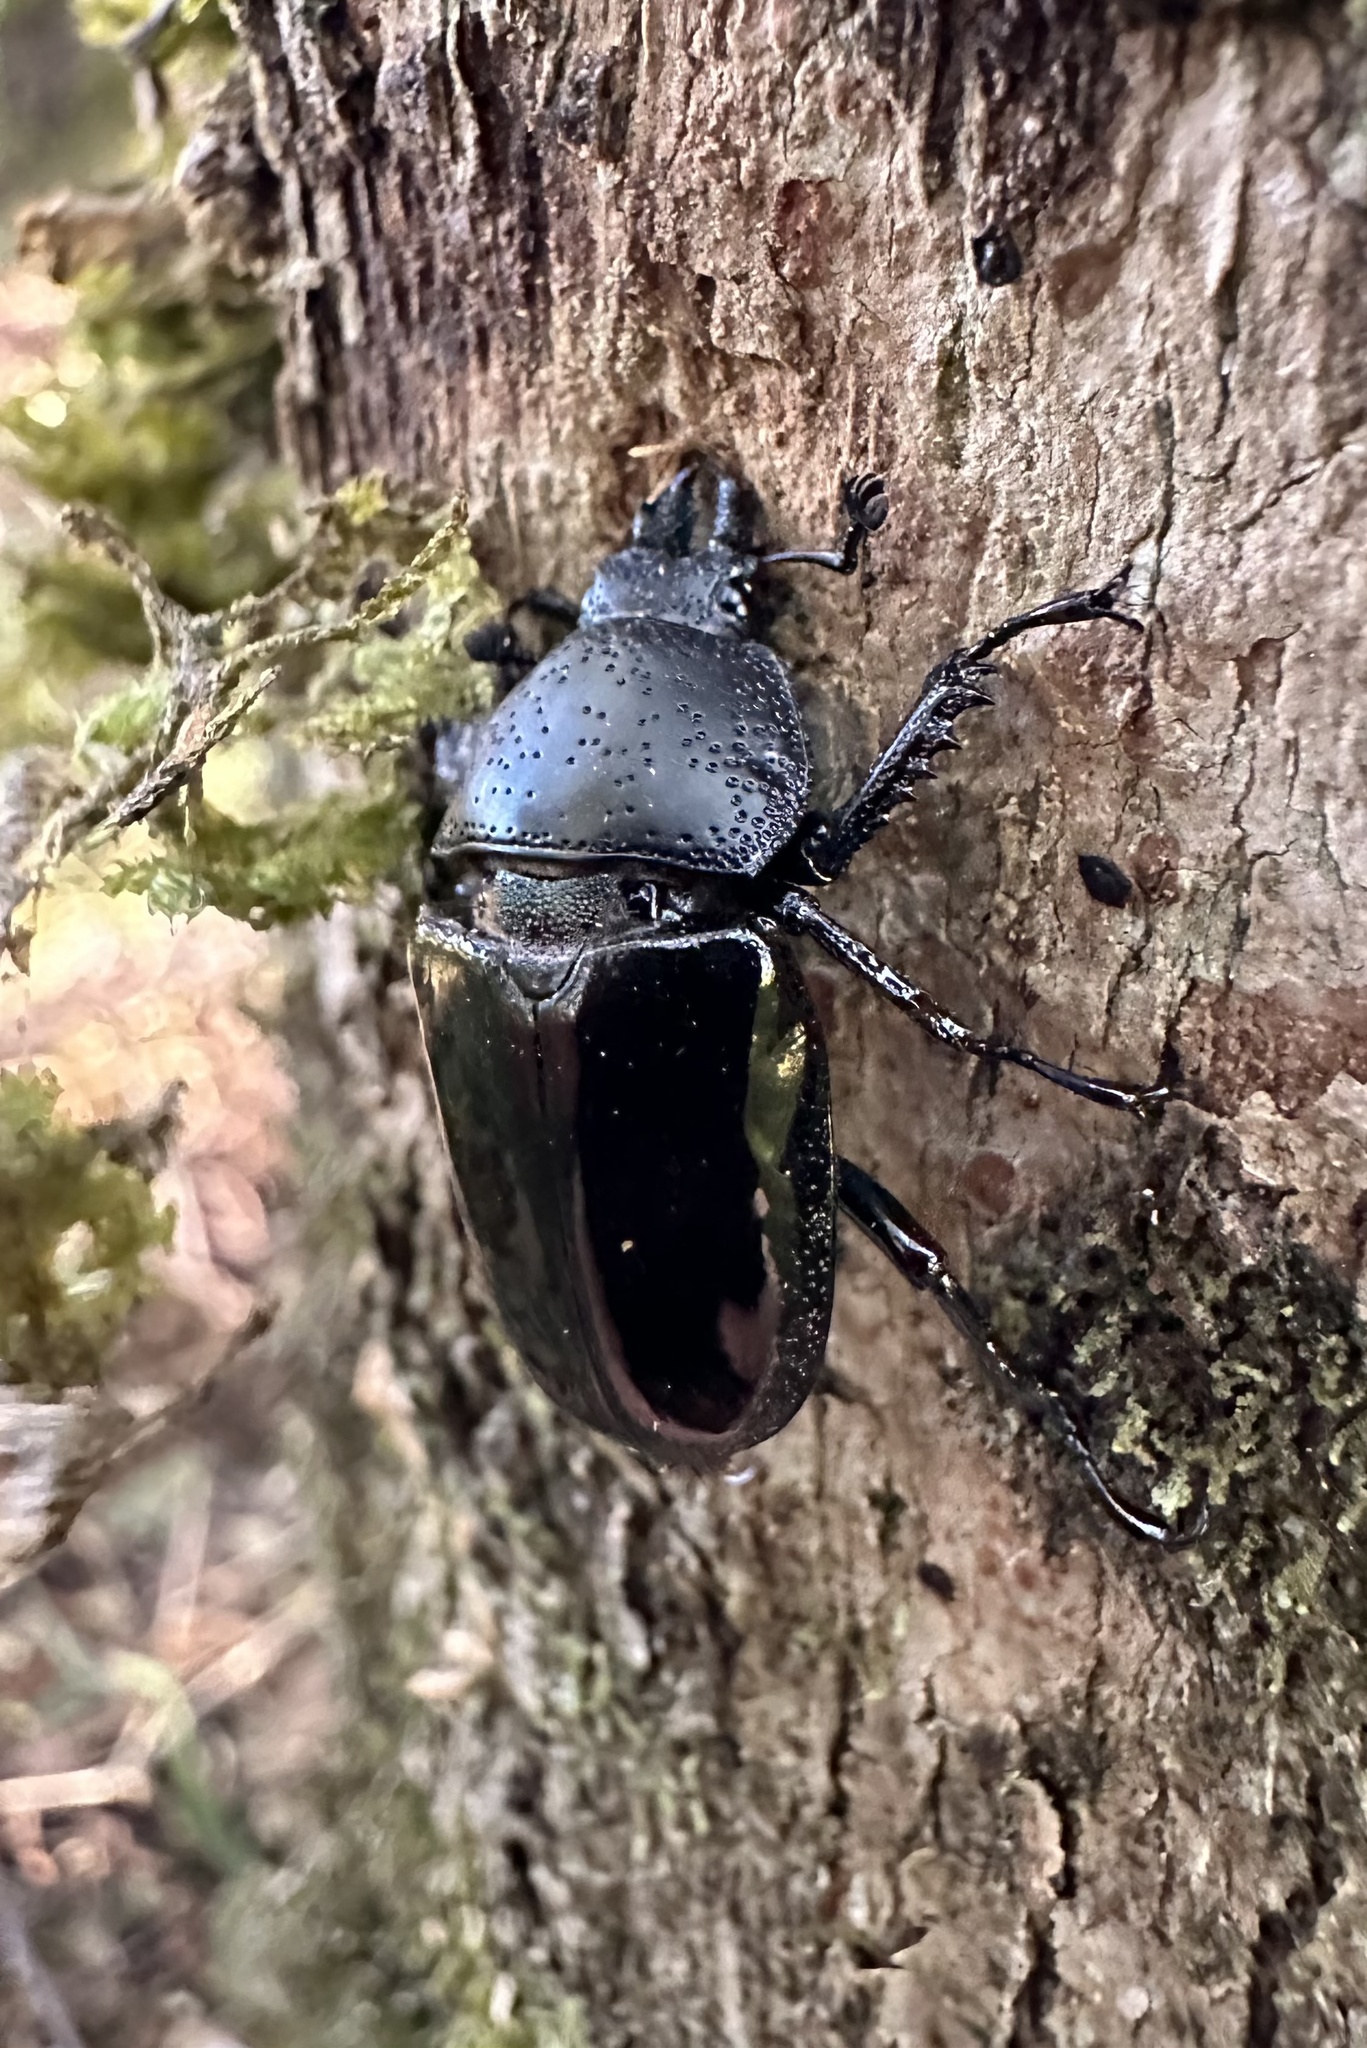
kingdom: Animalia
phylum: Arthropoda
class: Insecta
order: Coleoptera
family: Lucanidae
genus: Streptocerus
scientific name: Streptocerus speciosus
